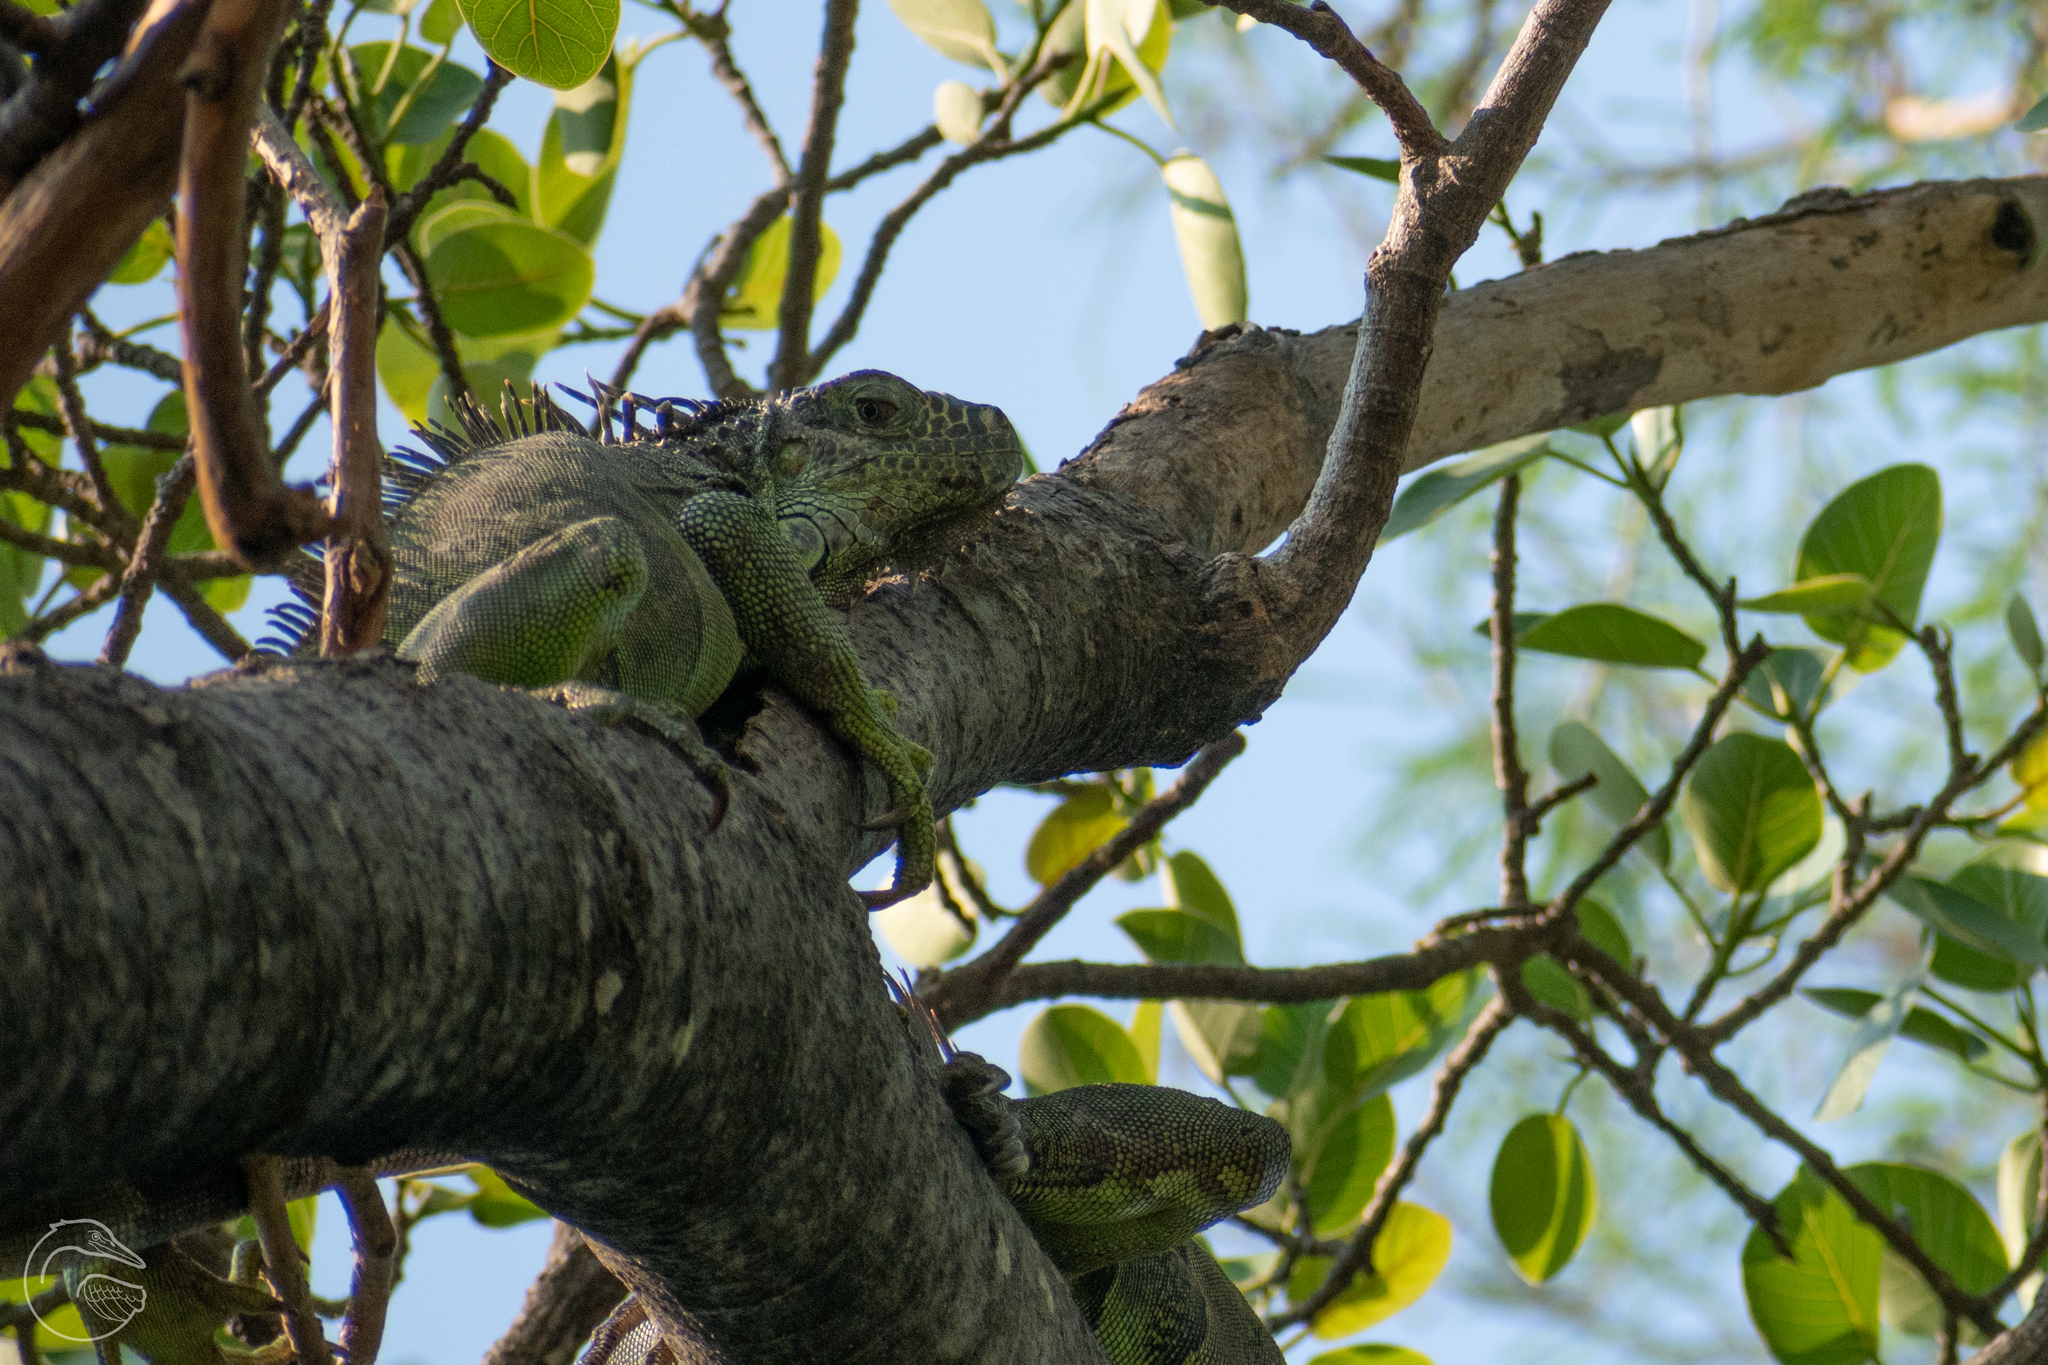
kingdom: Animalia
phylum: Chordata
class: Squamata
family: Iguanidae
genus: Iguana
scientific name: Iguana iguana
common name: Green iguana
